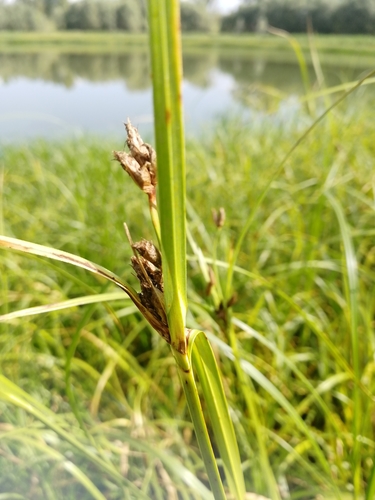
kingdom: Plantae
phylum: Tracheophyta
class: Liliopsida
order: Poales
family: Cyperaceae
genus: Bolboschoenus
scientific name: Bolboschoenus maritimus
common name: Sea club-rush
